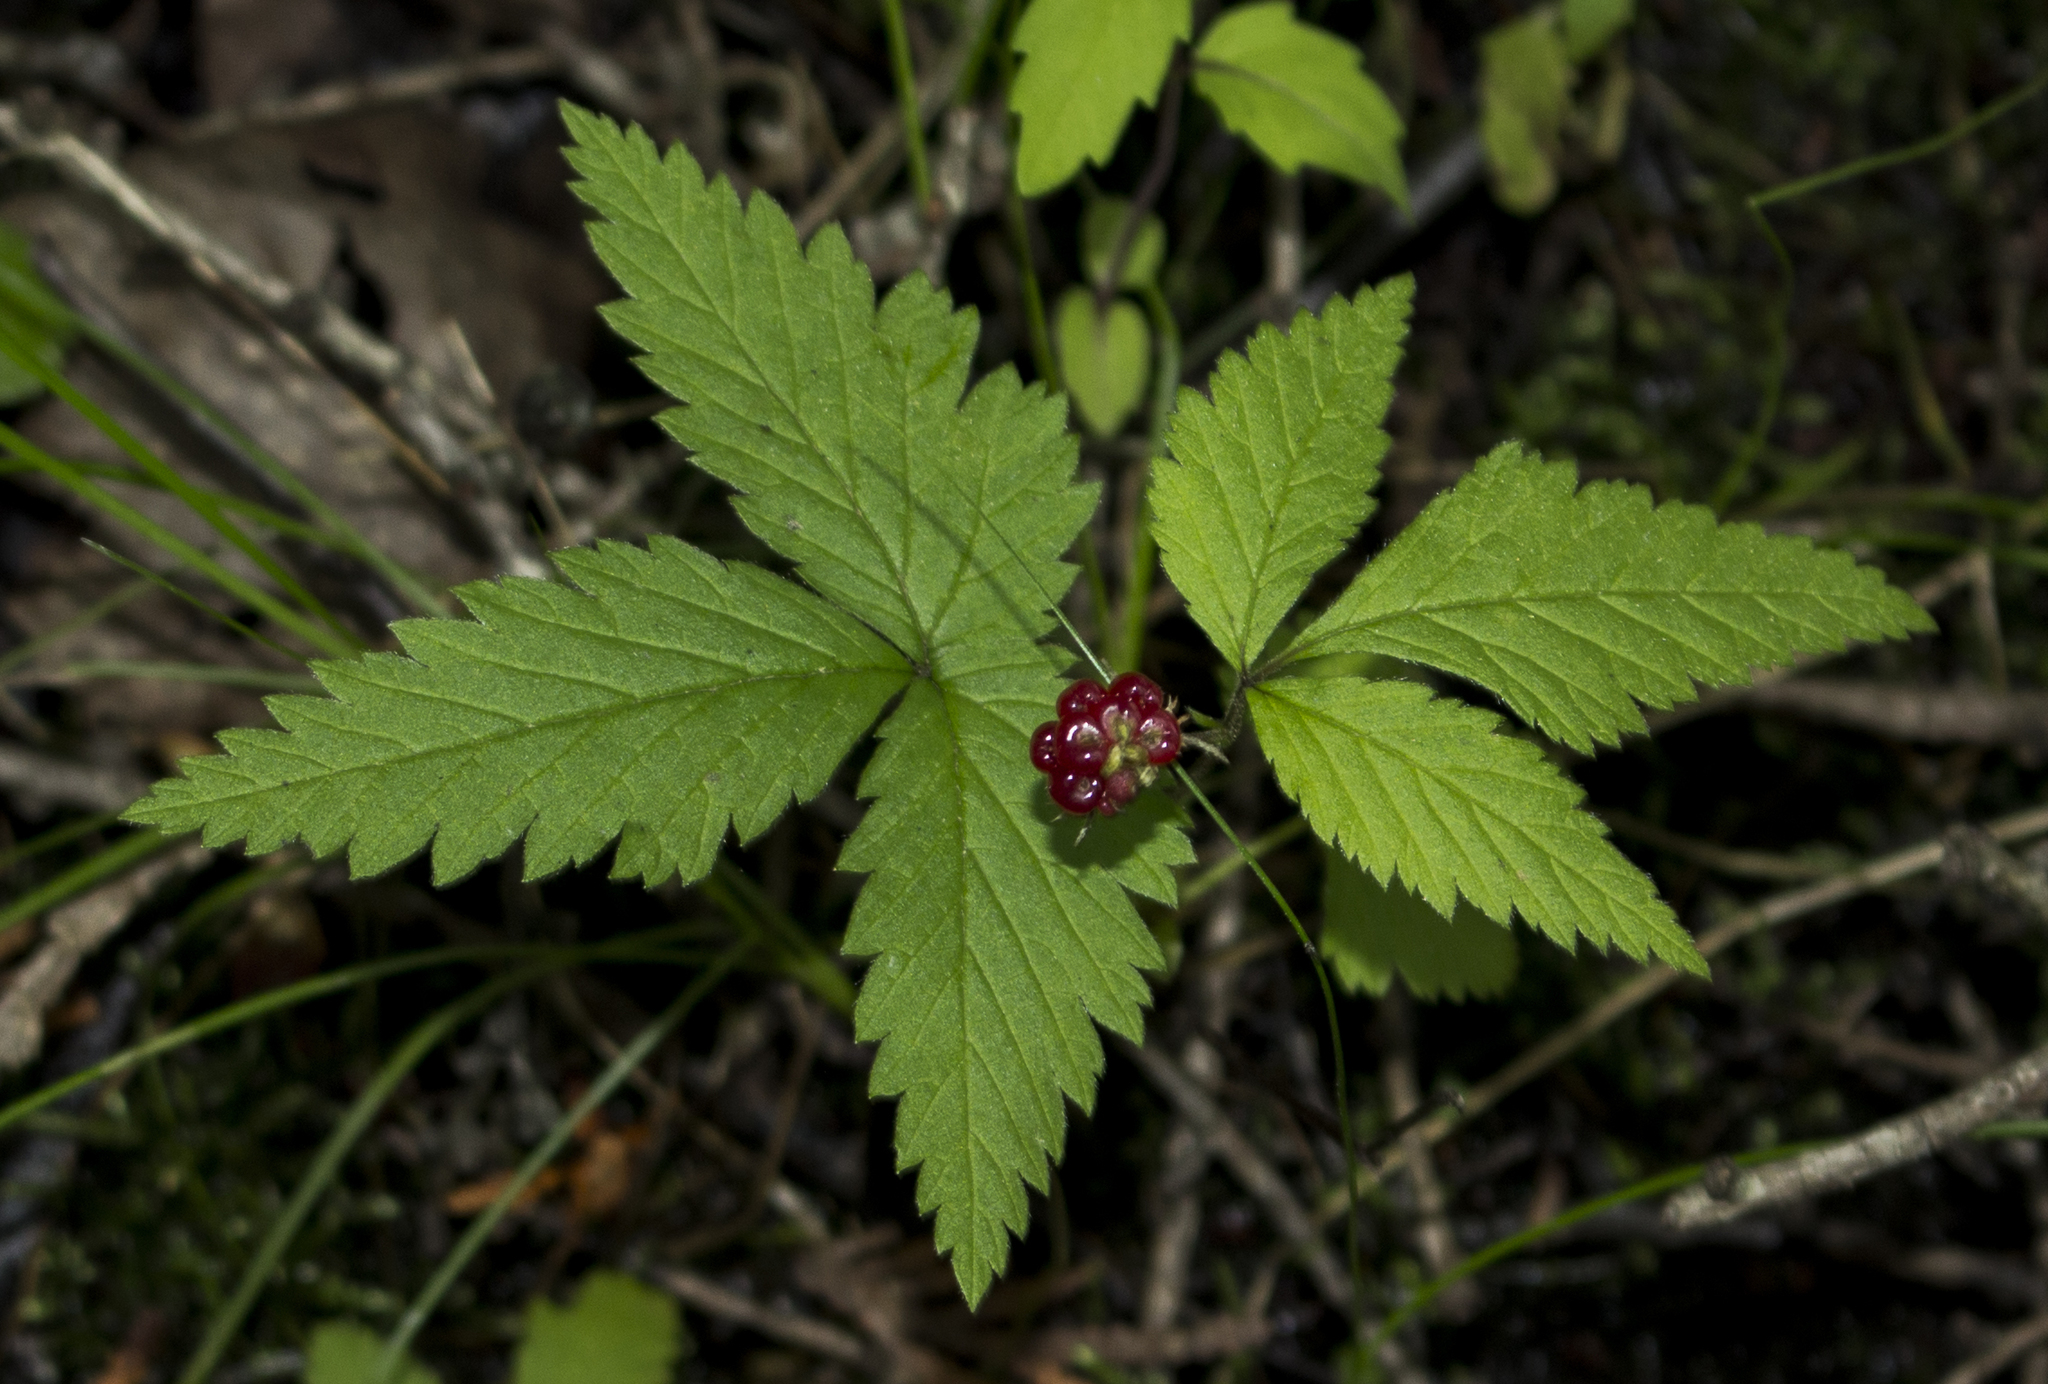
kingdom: Plantae
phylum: Tracheophyta
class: Magnoliopsida
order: Rosales
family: Rosaceae
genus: Rubus
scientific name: Rubus pubescens
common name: Dwarf raspberry
